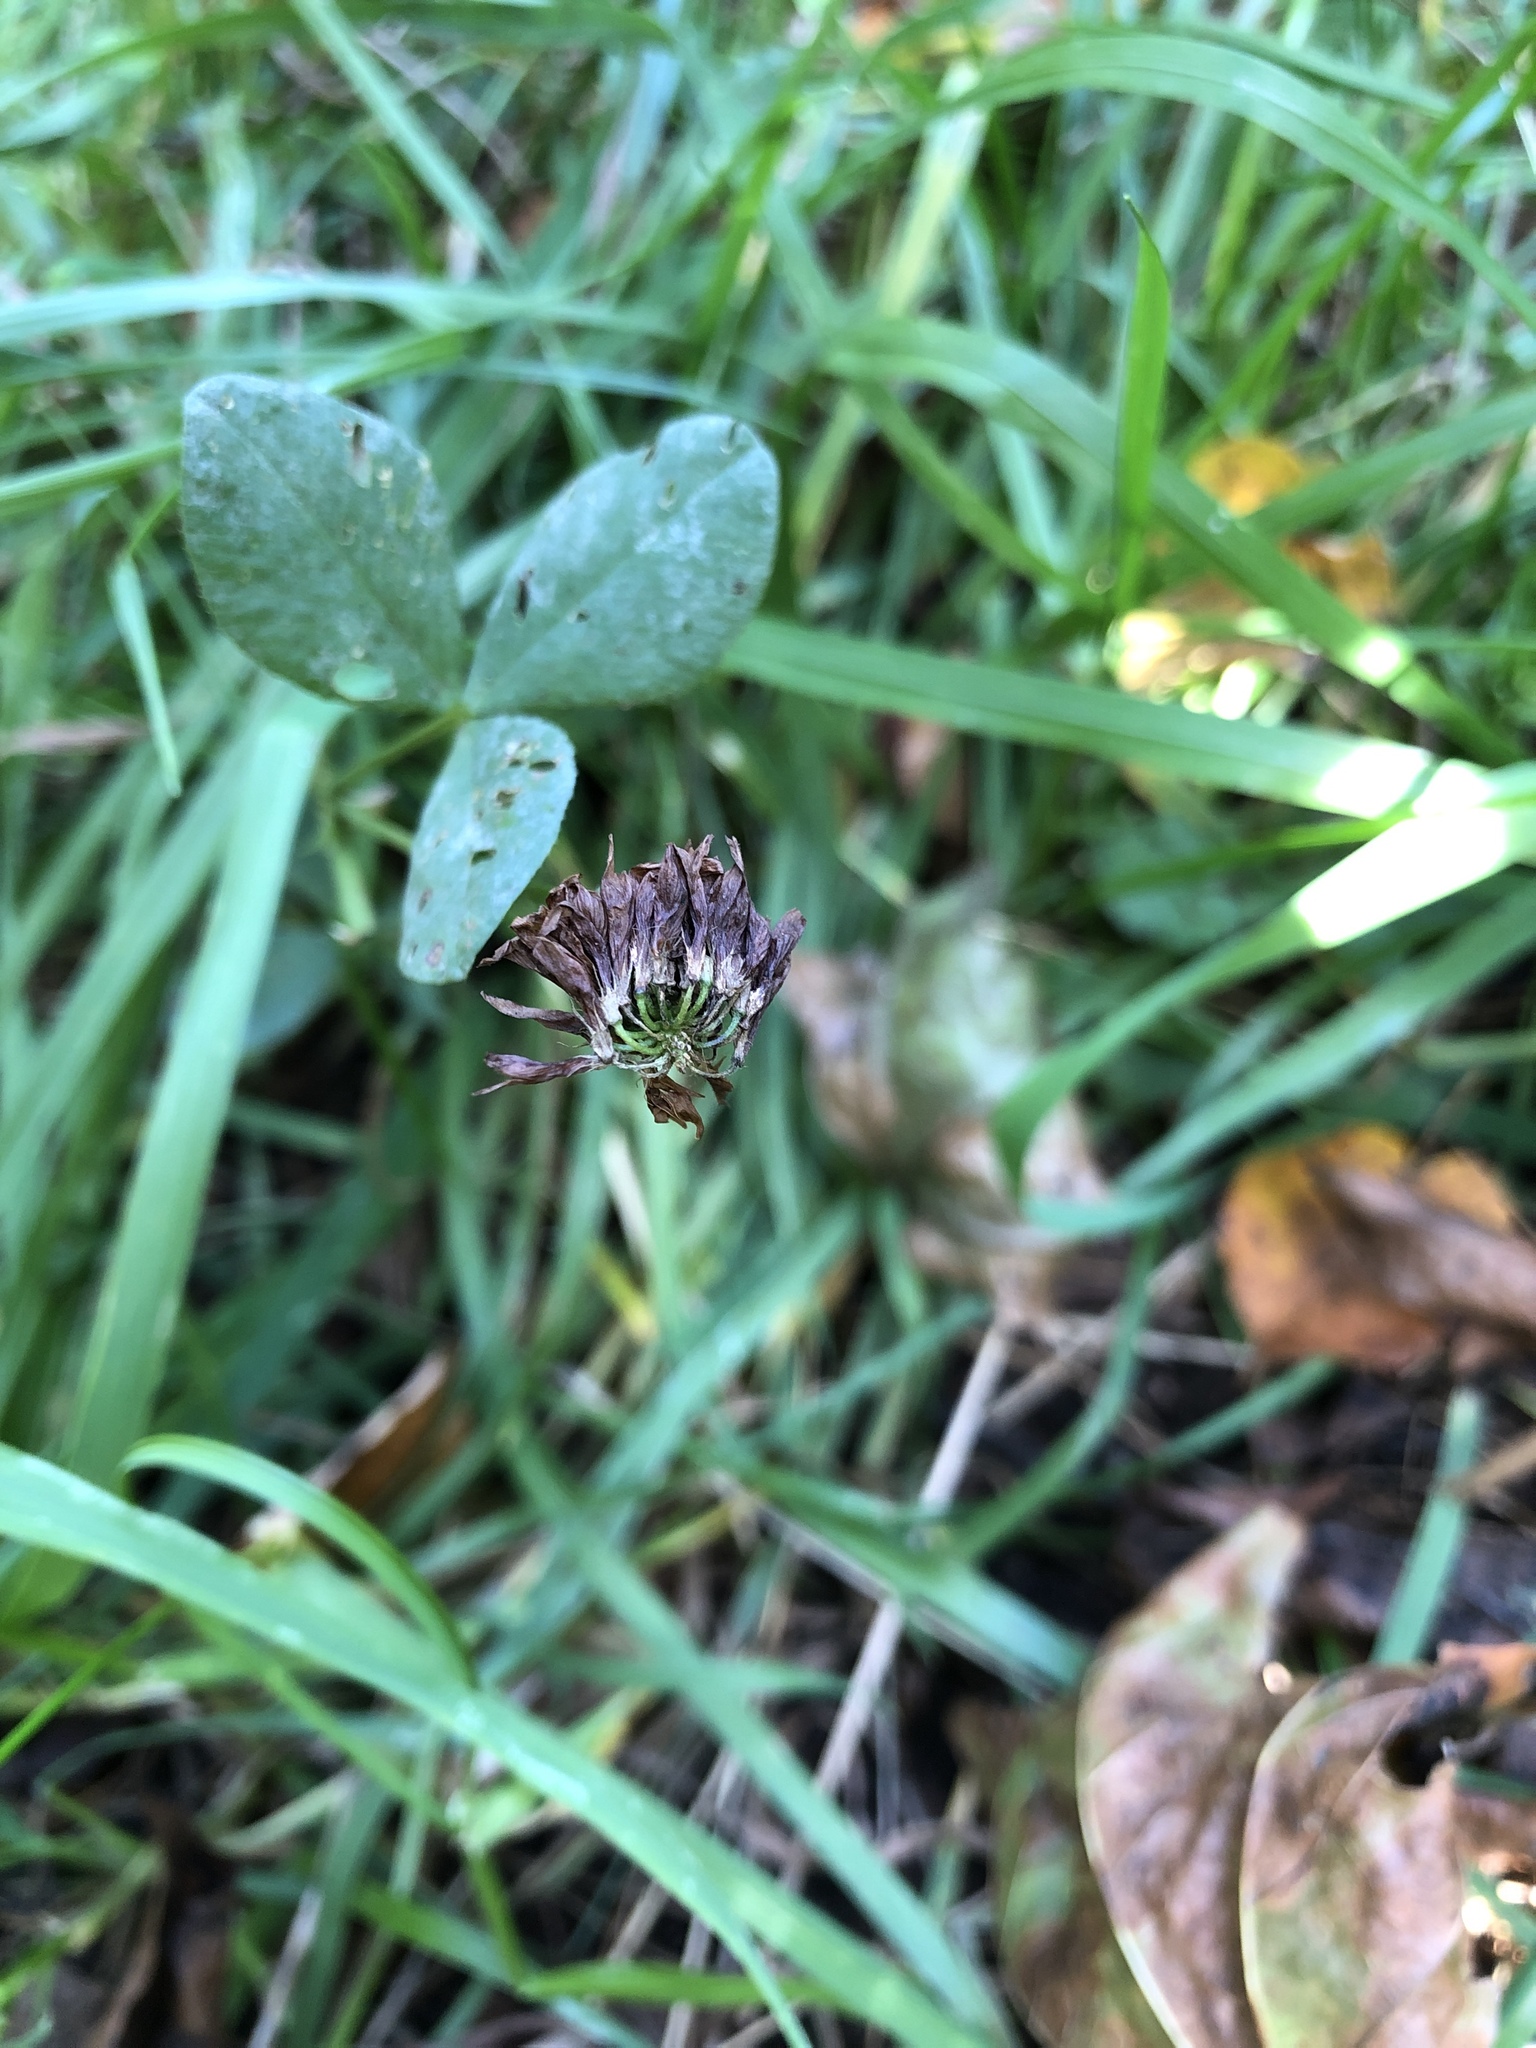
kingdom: Plantae
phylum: Tracheophyta
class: Magnoliopsida
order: Fabales
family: Fabaceae
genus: Trifolium
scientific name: Trifolium repens
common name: White clover
